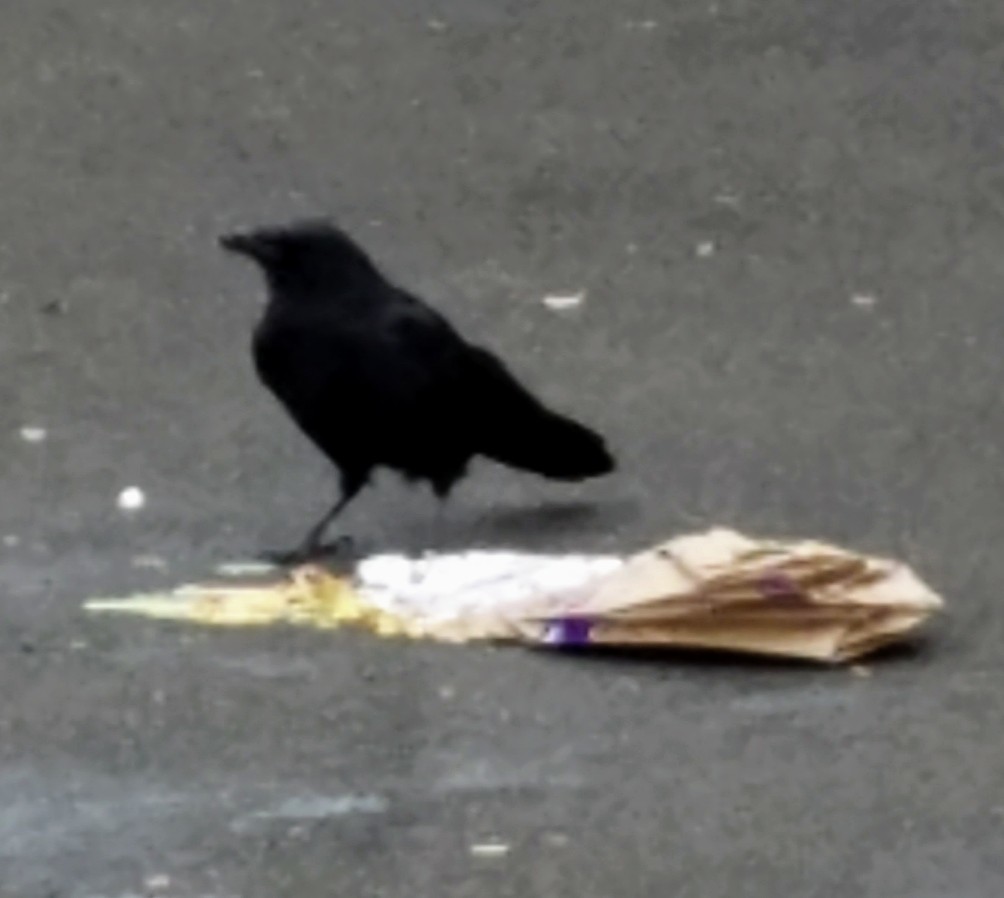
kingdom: Animalia
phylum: Chordata
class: Aves
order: Passeriformes
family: Corvidae
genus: Corvus
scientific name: Corvus brachyrhynchos
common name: American crow
